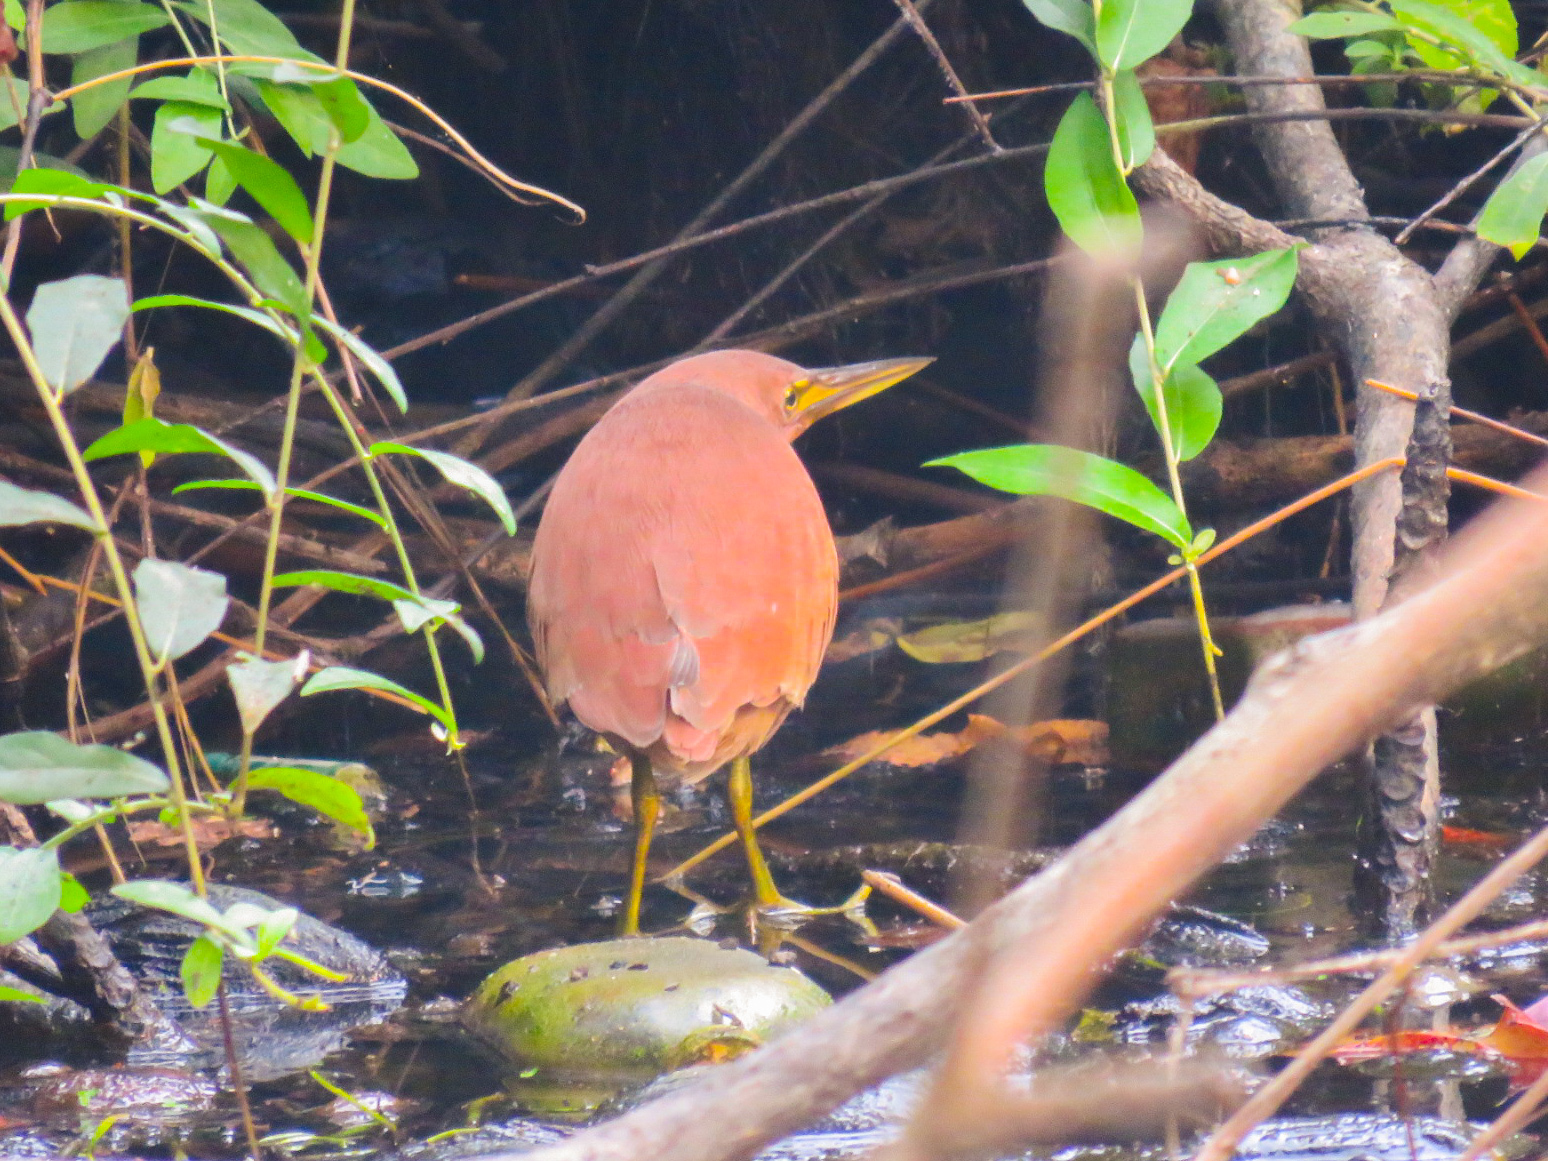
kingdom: Animalia
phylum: Chordata
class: Aves
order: Pelecaniformes
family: Ardeidae
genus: Ixobrychus
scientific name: Ixobrychus cinnamomeus
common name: Cinnamon bittern
